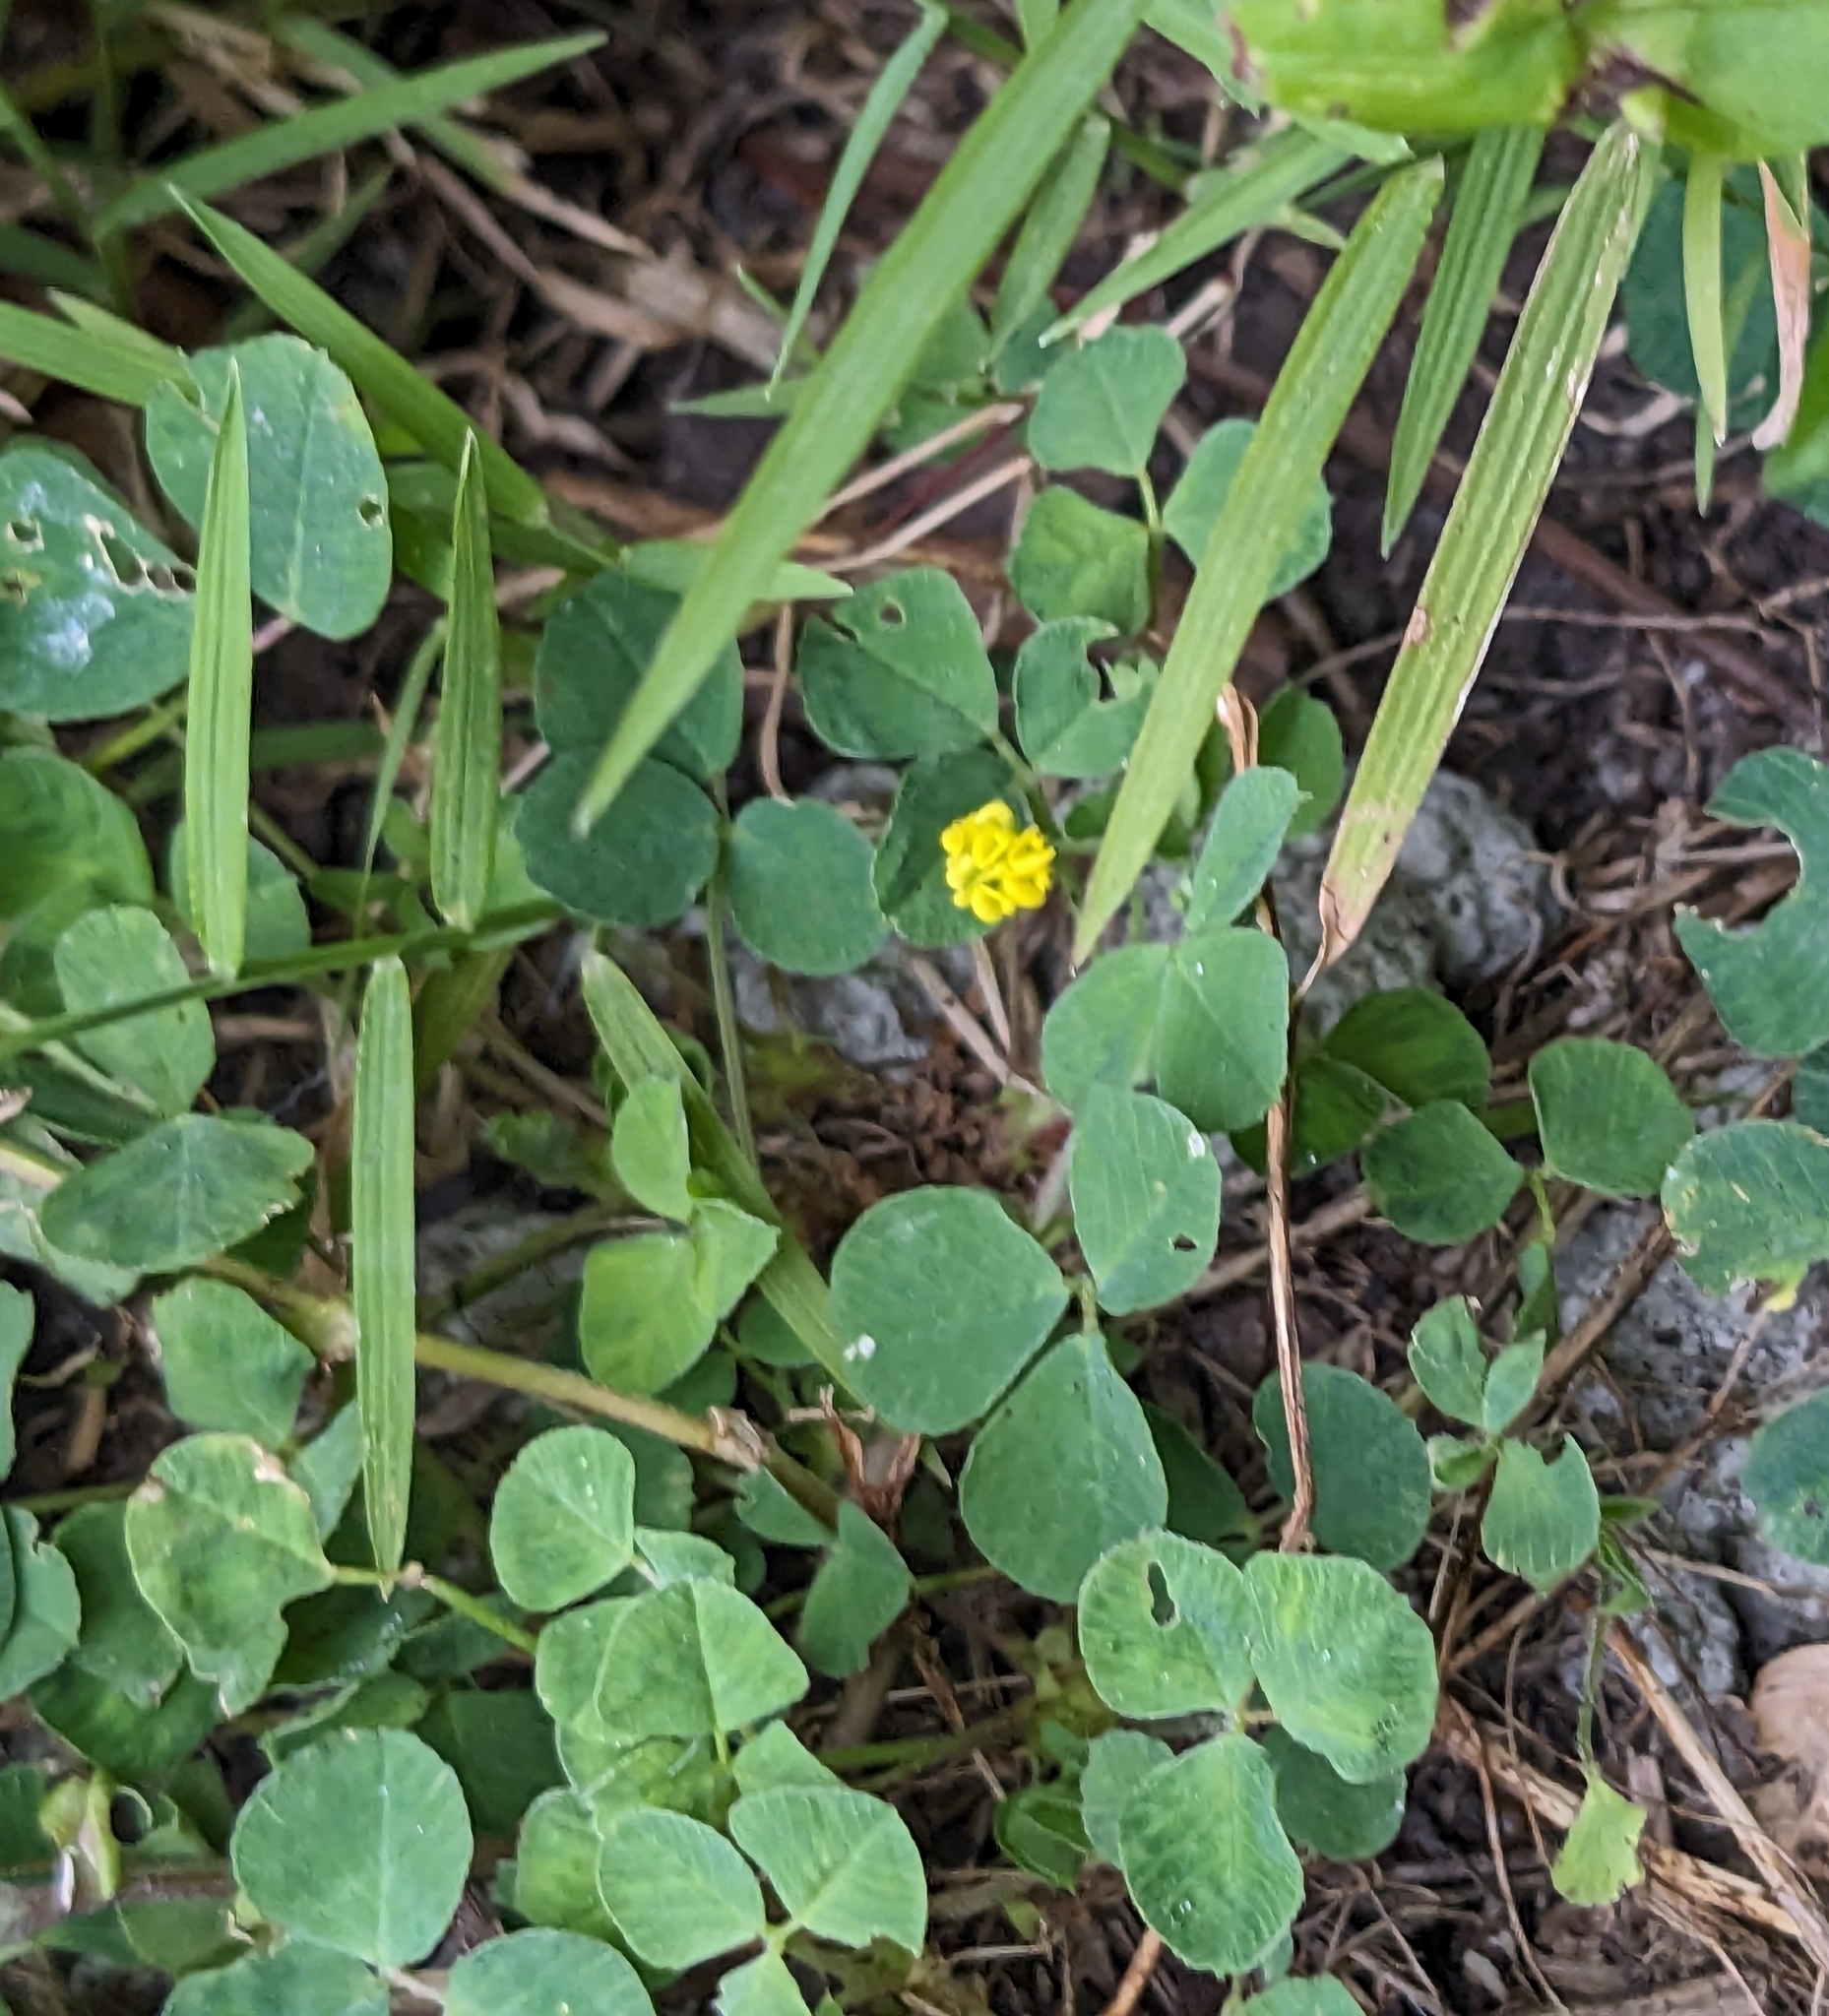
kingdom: Plantae
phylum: Tracheophyta
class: Magnoliopsida
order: Fabales
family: Fabaceae
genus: Medicago
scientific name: Medicago lupulina
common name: Black medick
